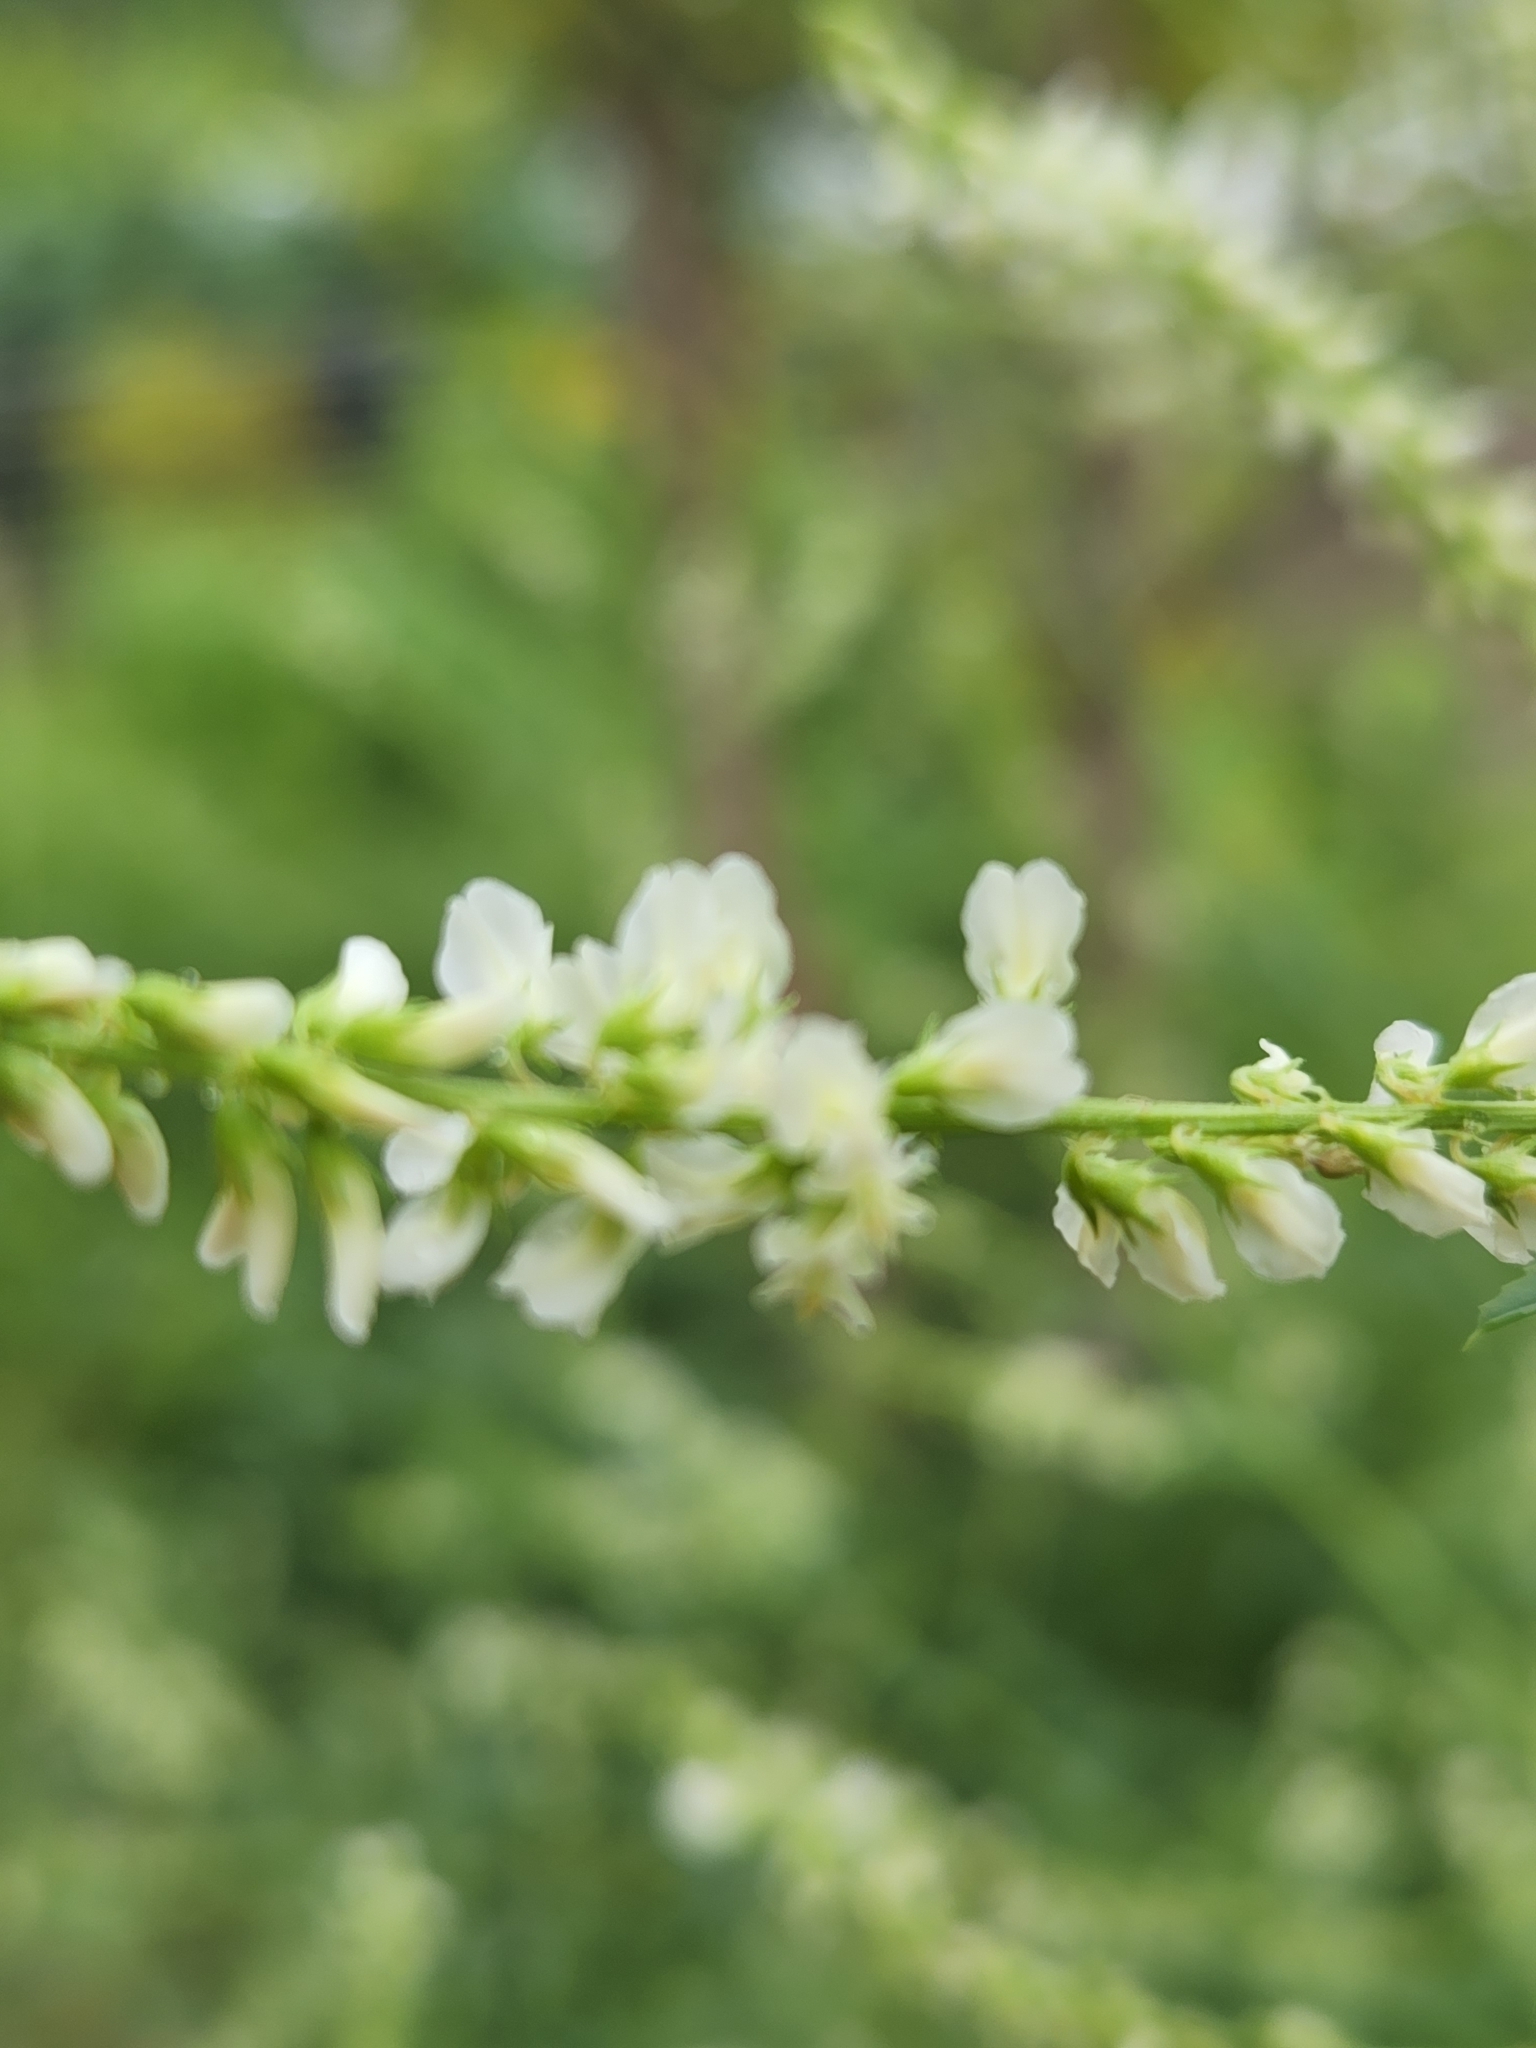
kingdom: Plantae
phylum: Tracheophyta
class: Magnoliopsida
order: Fabales
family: Fabaceae
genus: Melilotus
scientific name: Melilotus albus
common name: White melilot
